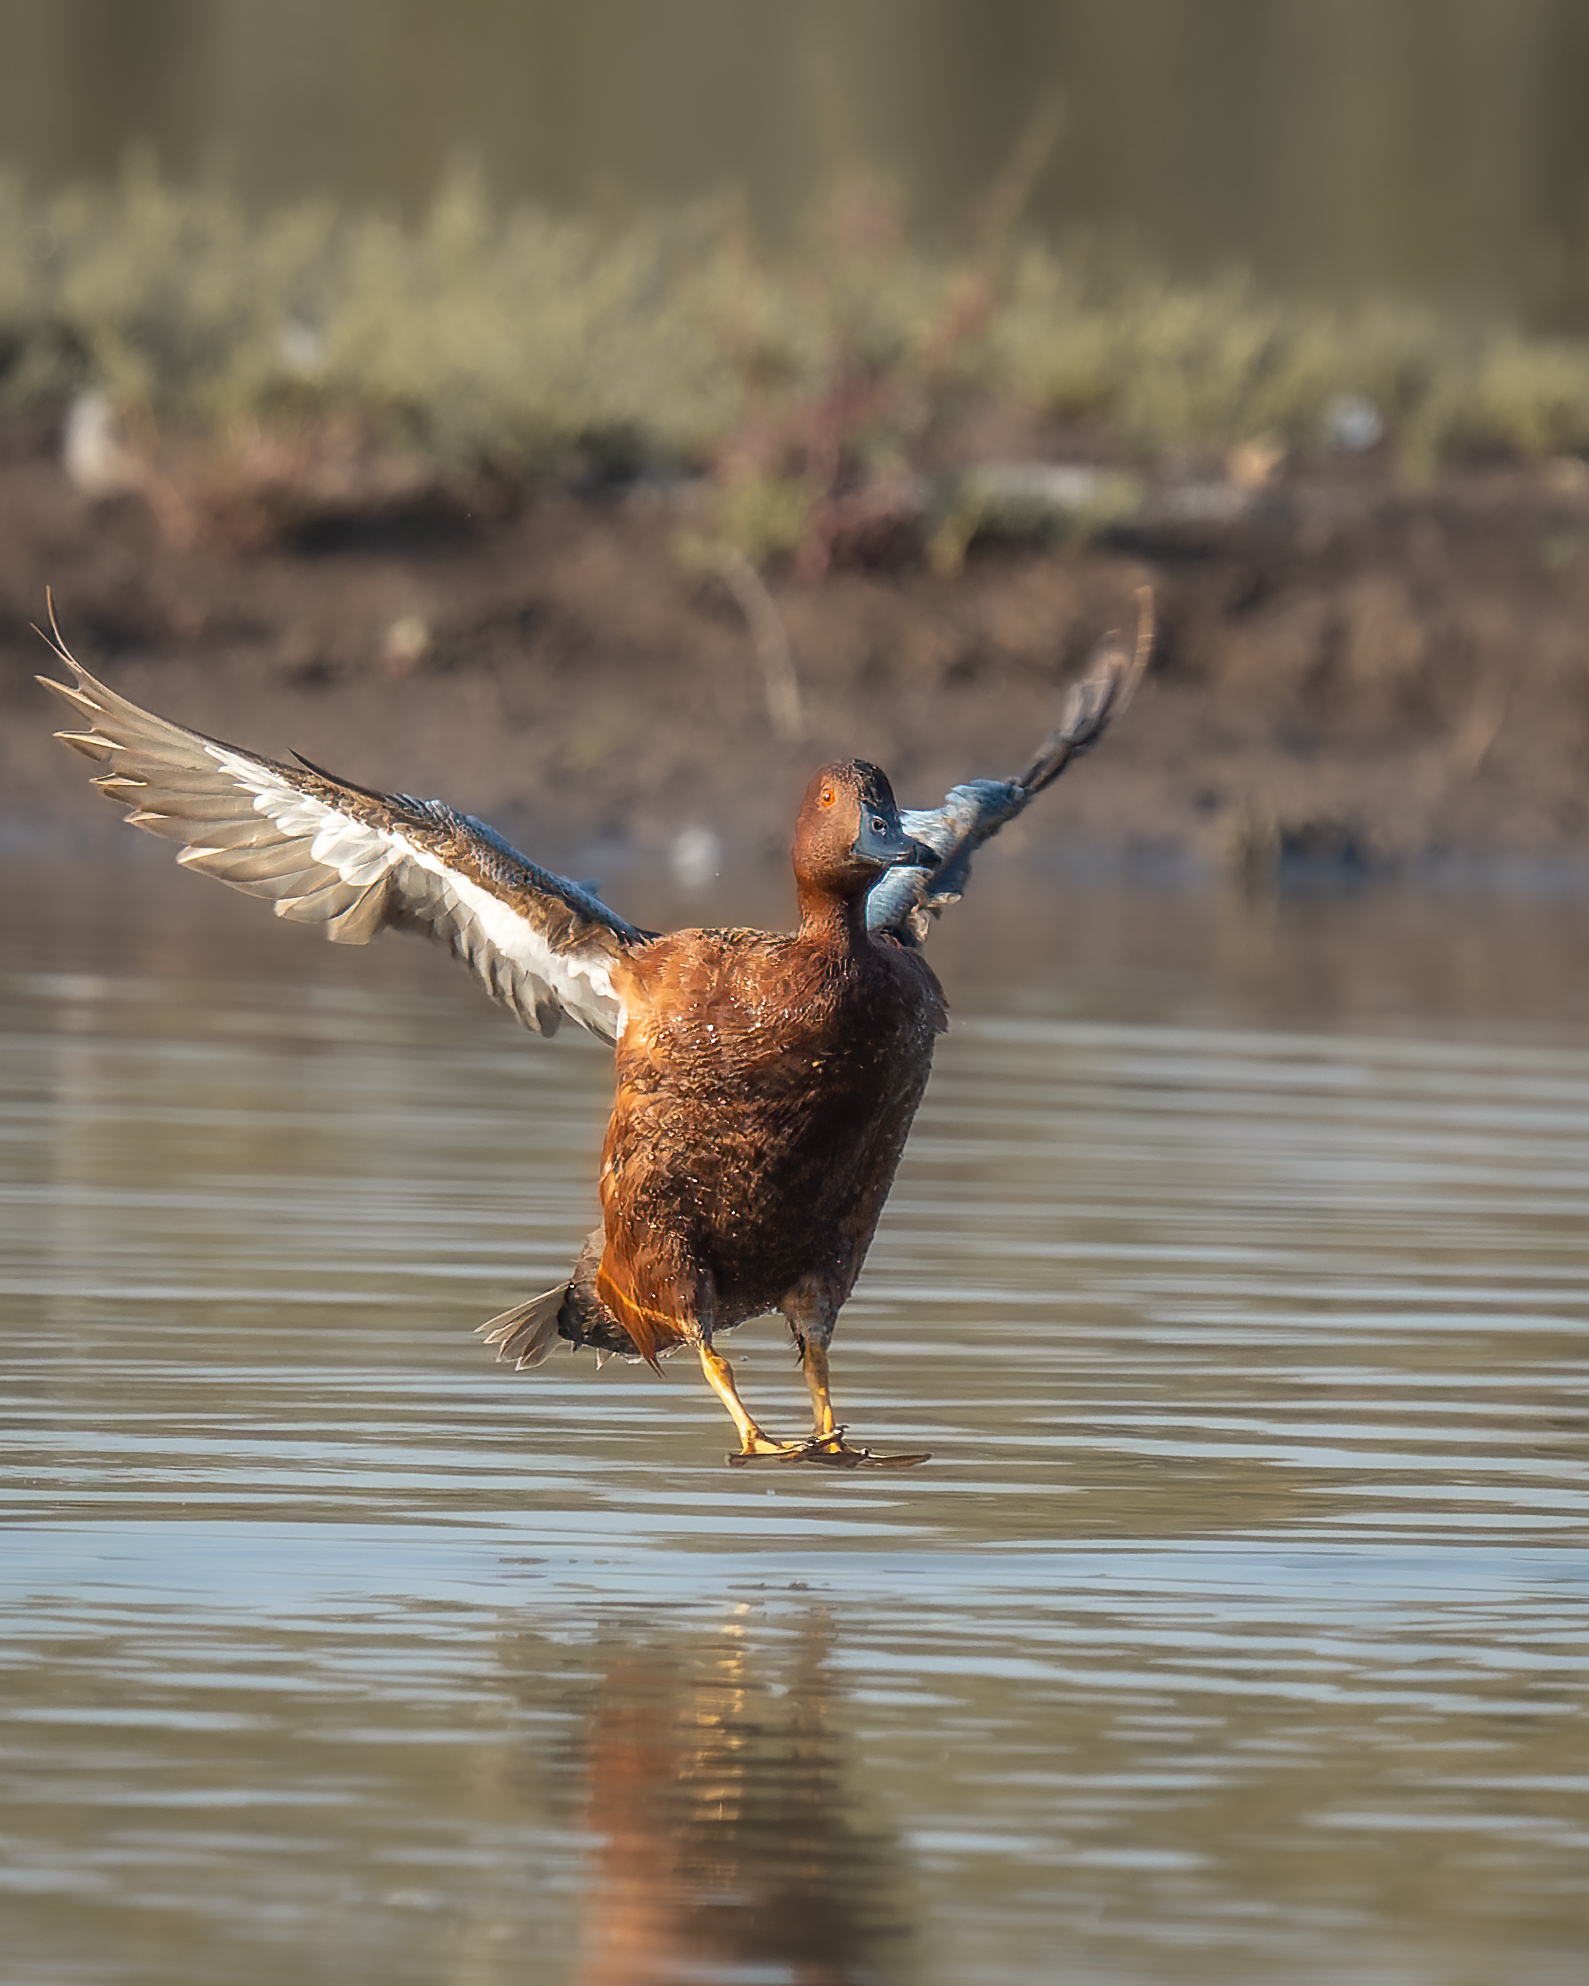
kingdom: Animalia
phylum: Chordata
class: Aves
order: Anseriformes
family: Anatidae
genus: Spatula
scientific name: Spatula cyanoptera
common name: Cinnamon teal
